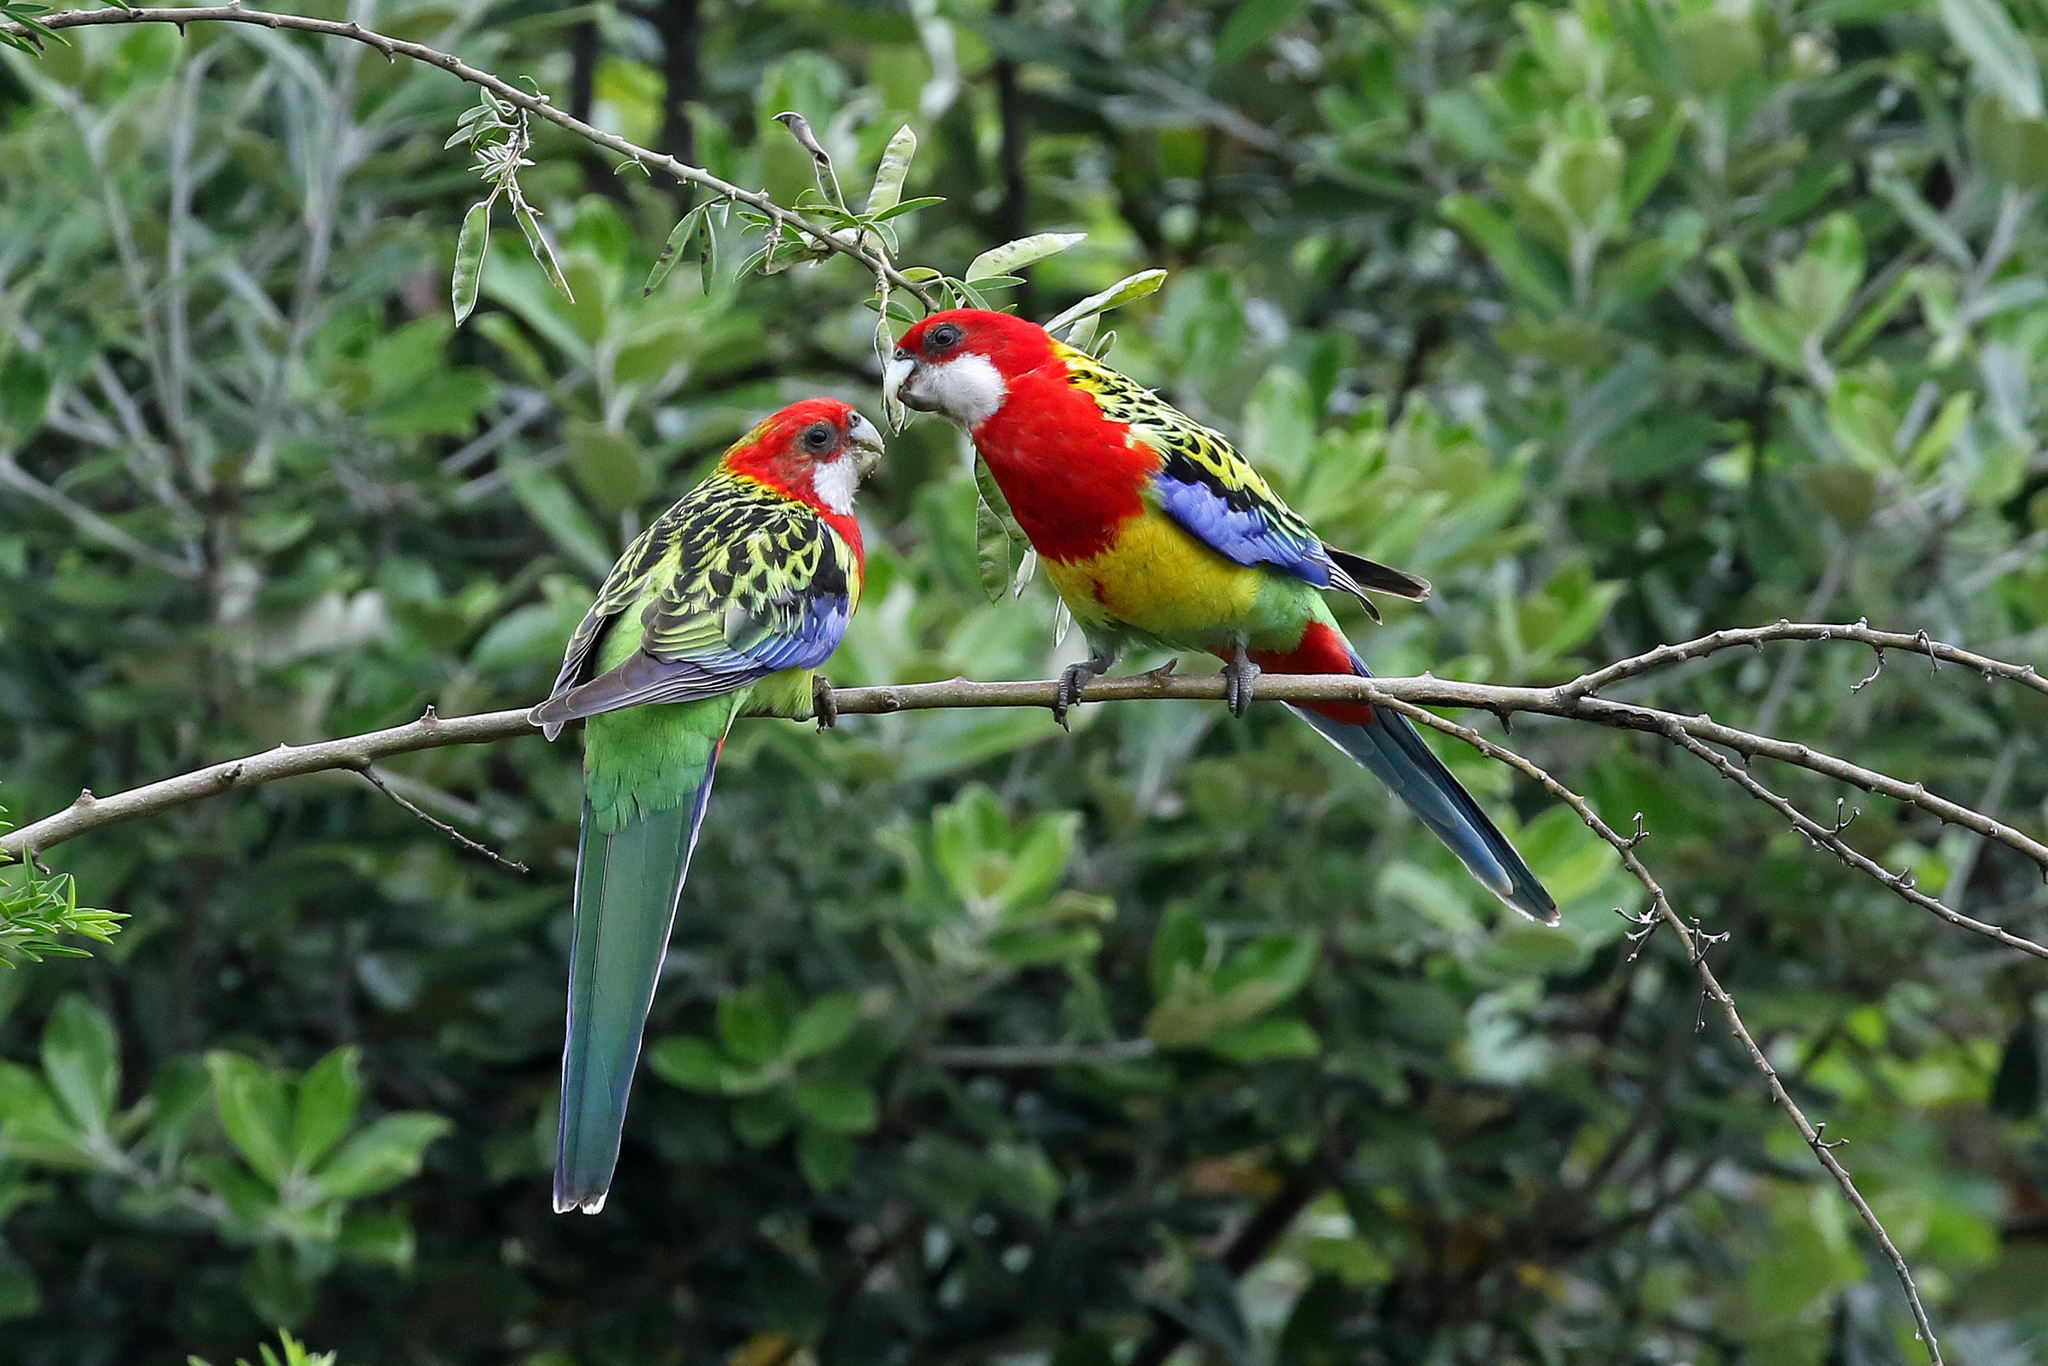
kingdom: Animalia
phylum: Chordata
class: Aves
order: Psittaciformes
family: Psittacidae
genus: Platycercus
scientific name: Platycercus eximius
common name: Eastern rosella
